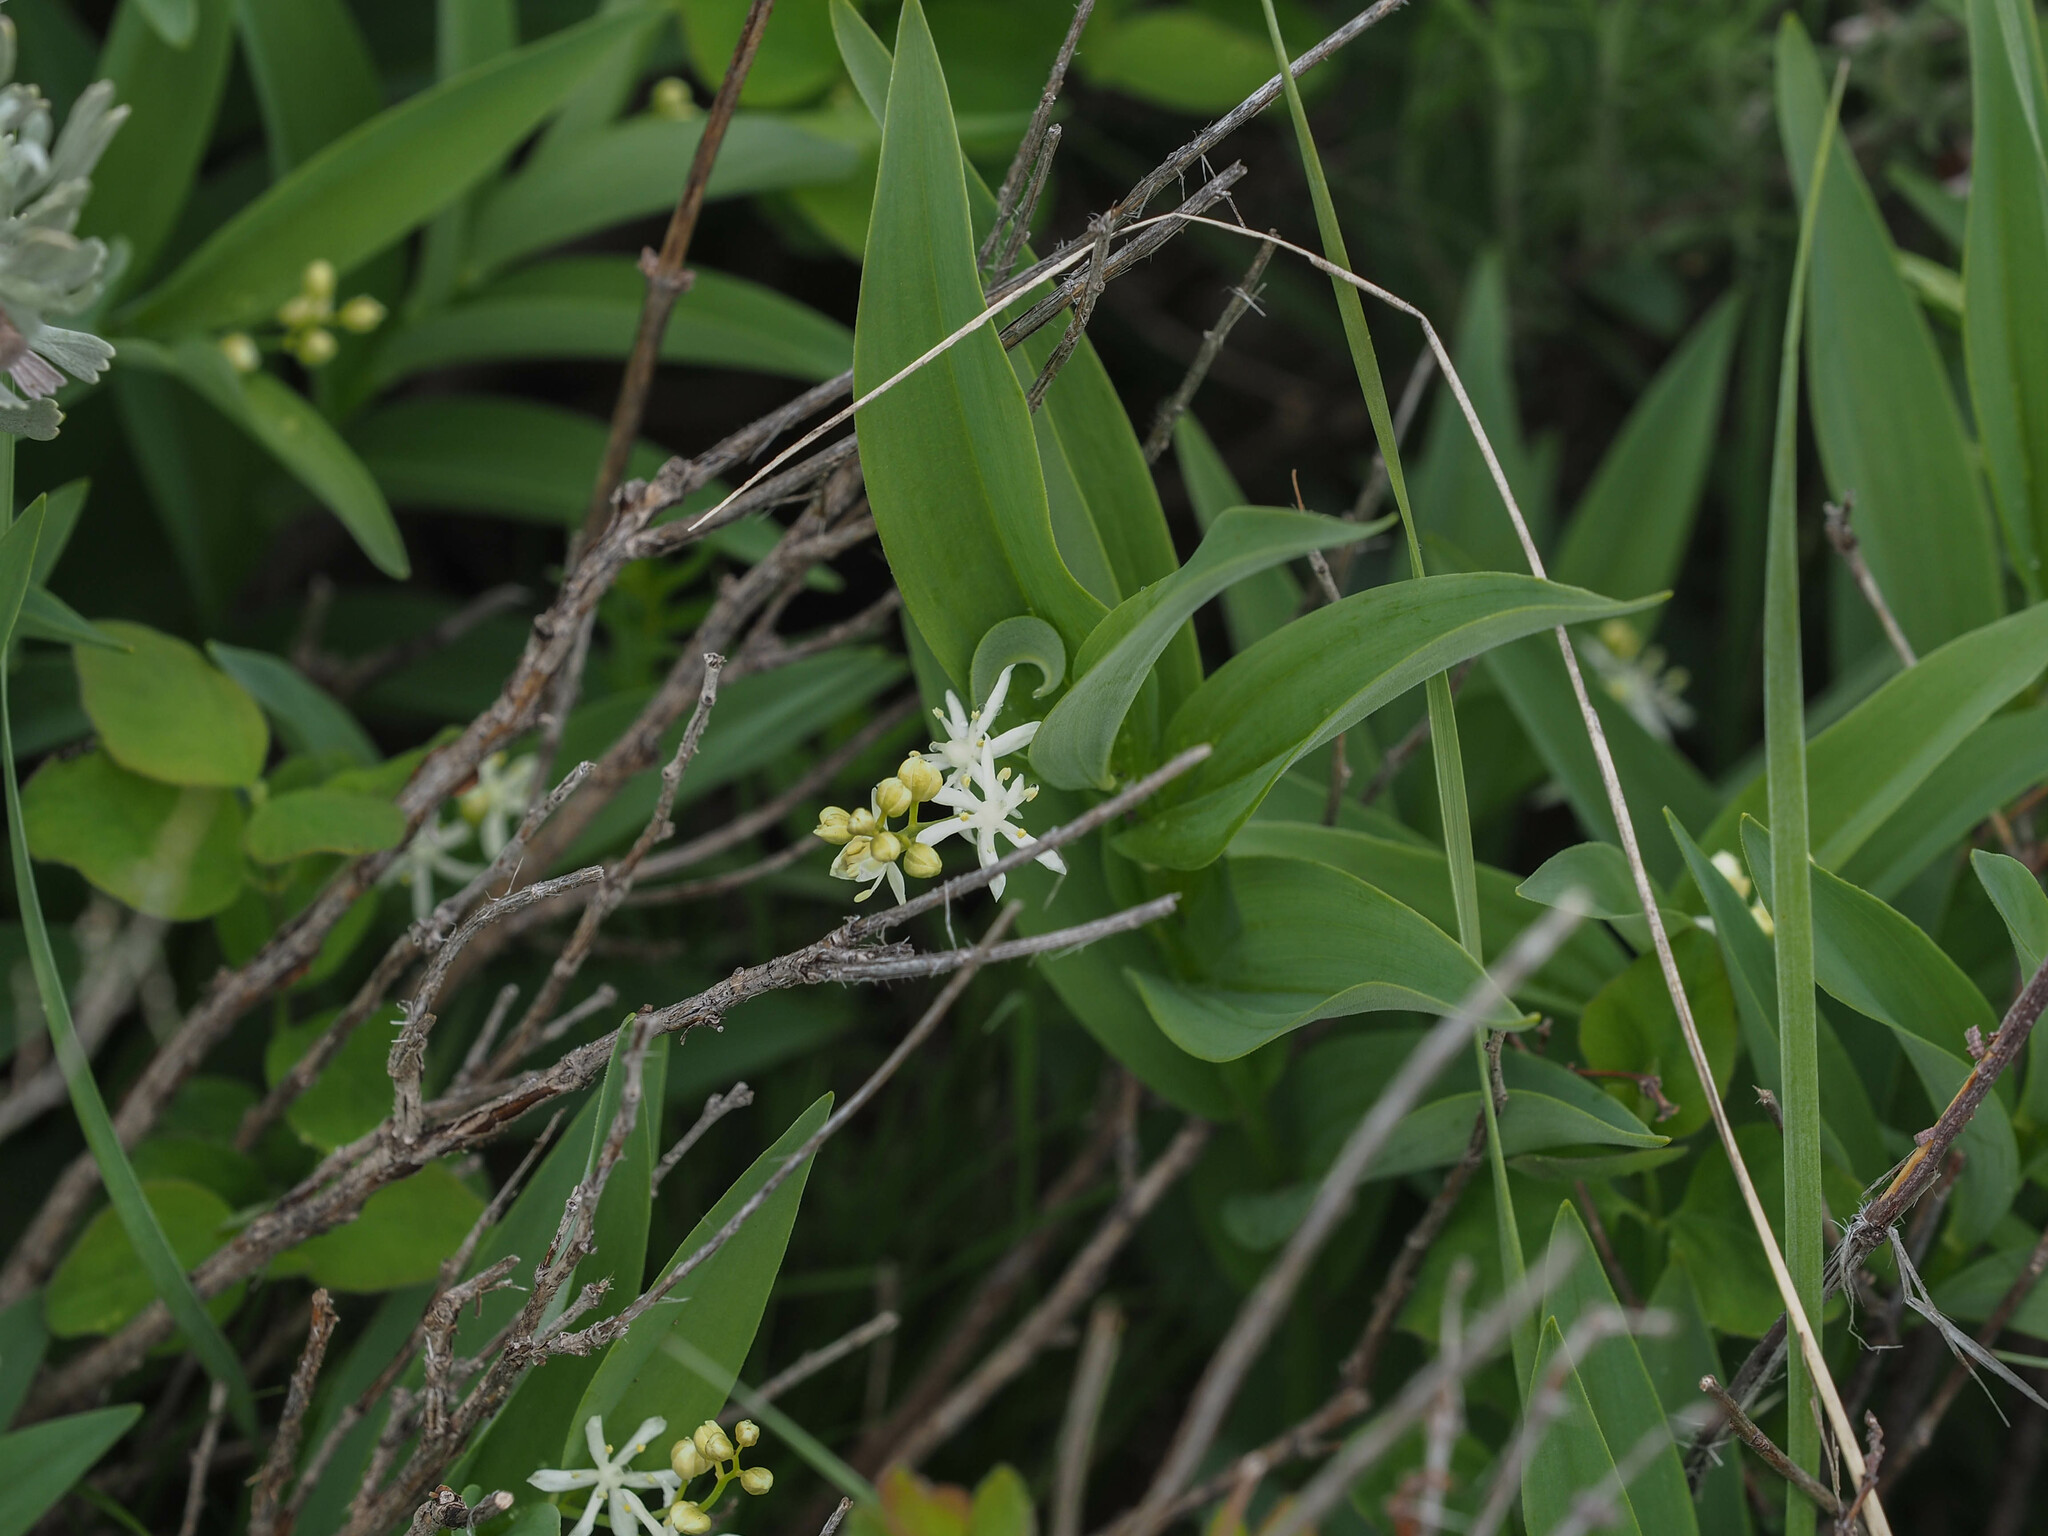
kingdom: Plantae
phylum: Tracheophyta
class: Liliopsida
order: Asparagales
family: Asparagaceae
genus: Maianthemum
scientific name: Maianthemum stellatum
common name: Little false solomon's seal
